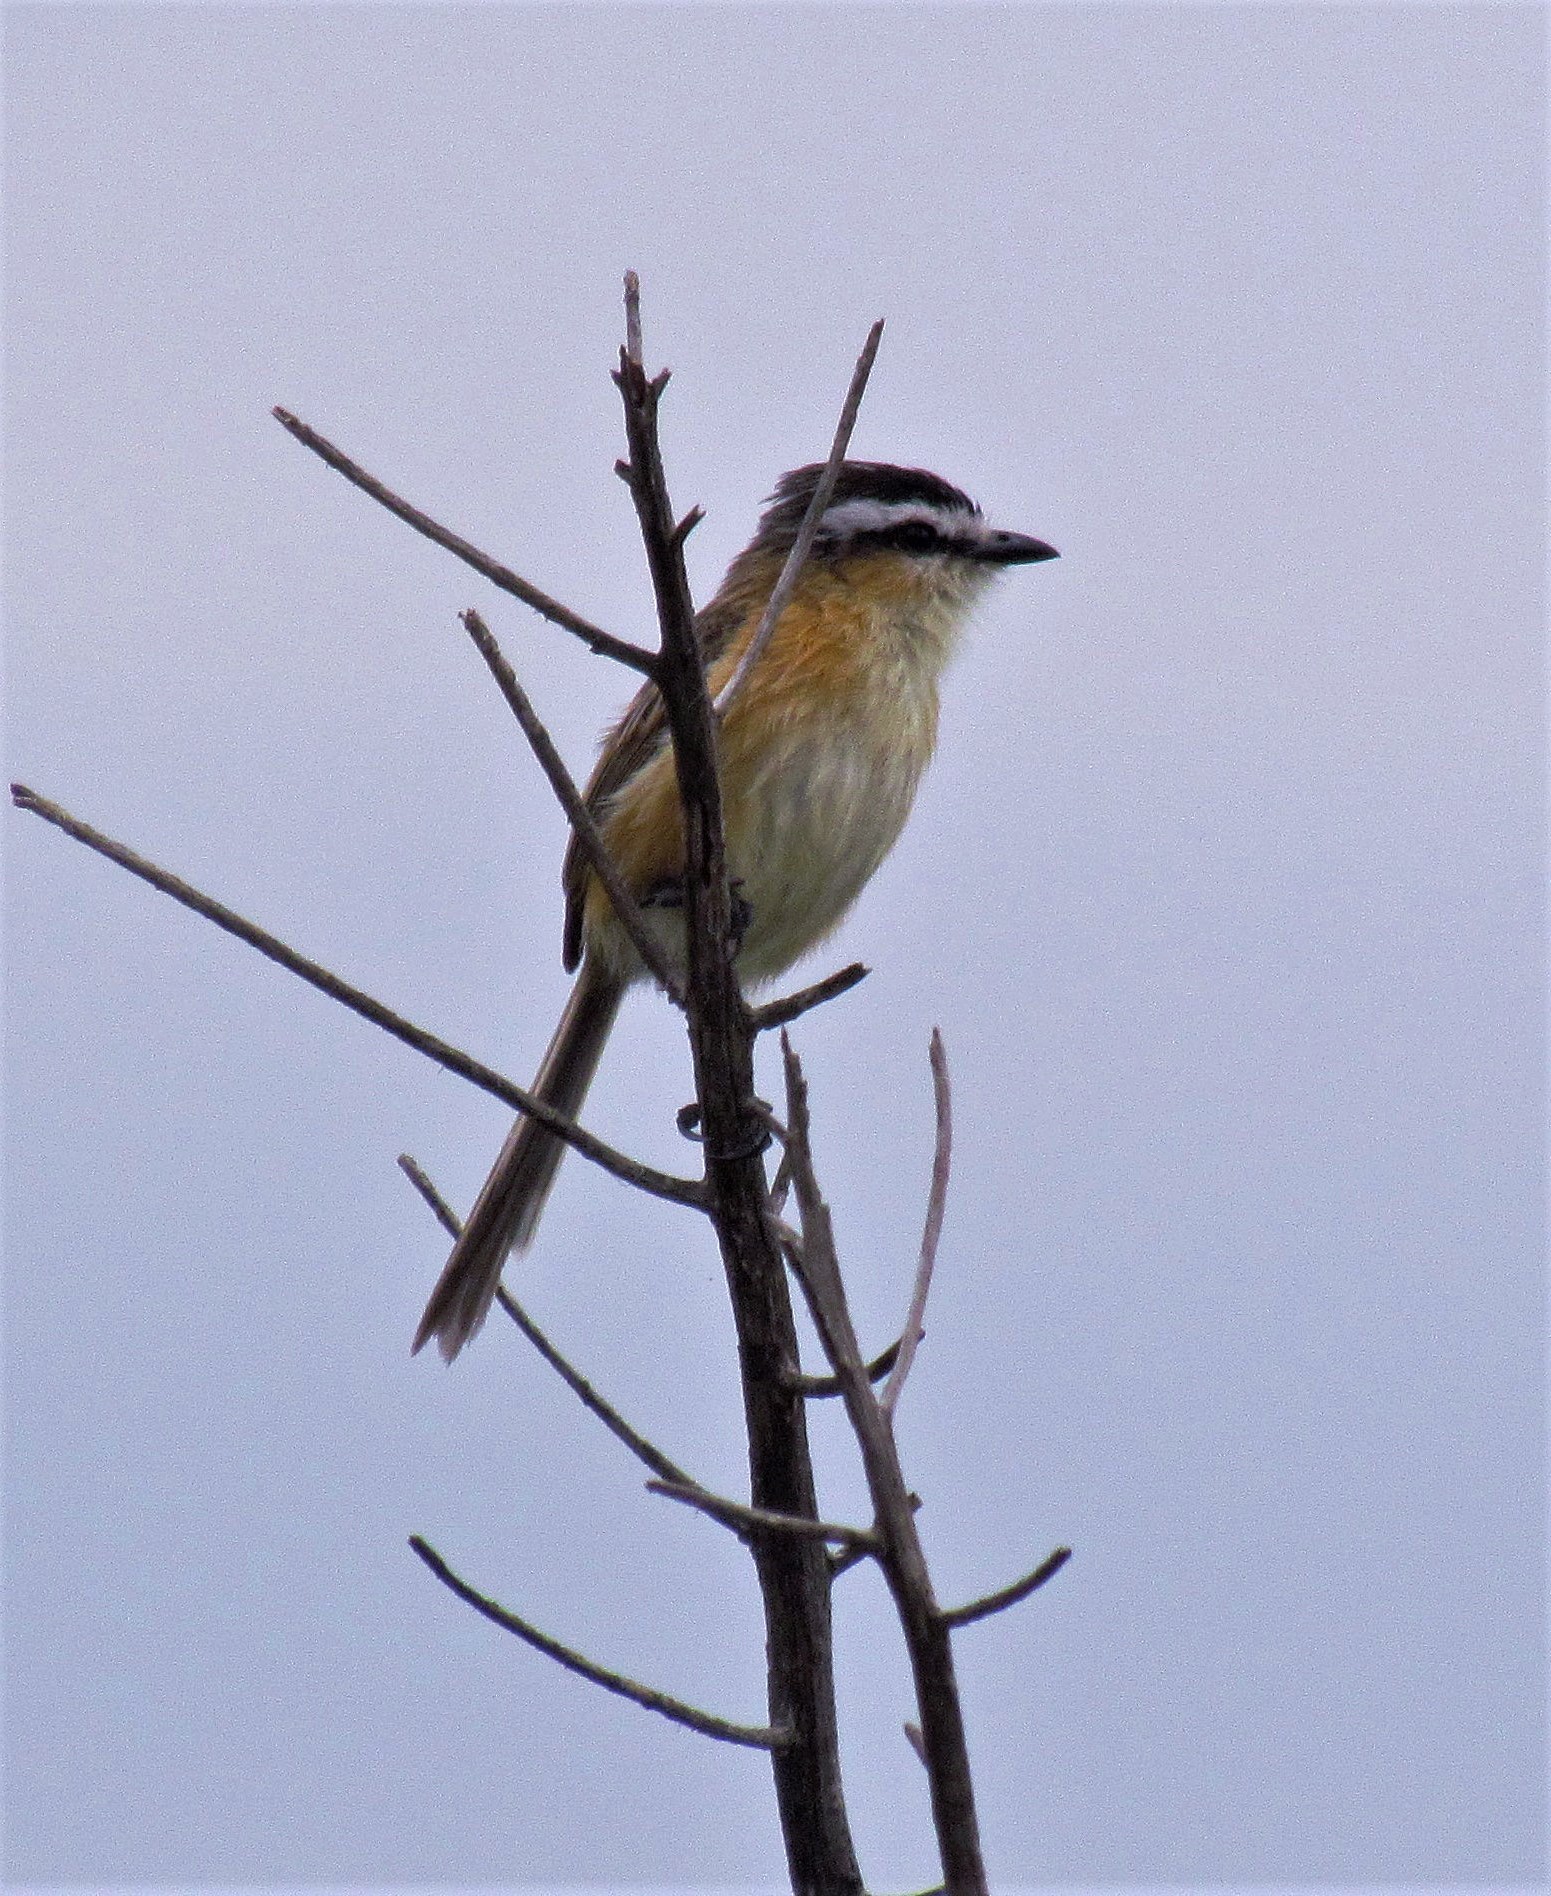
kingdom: Animalia
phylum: Chordata
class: Aves
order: Passeriformes
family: Tyrannidae
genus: Culicivora
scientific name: Culicivora caudacuta
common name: Sharp-tailed grass tyrant
